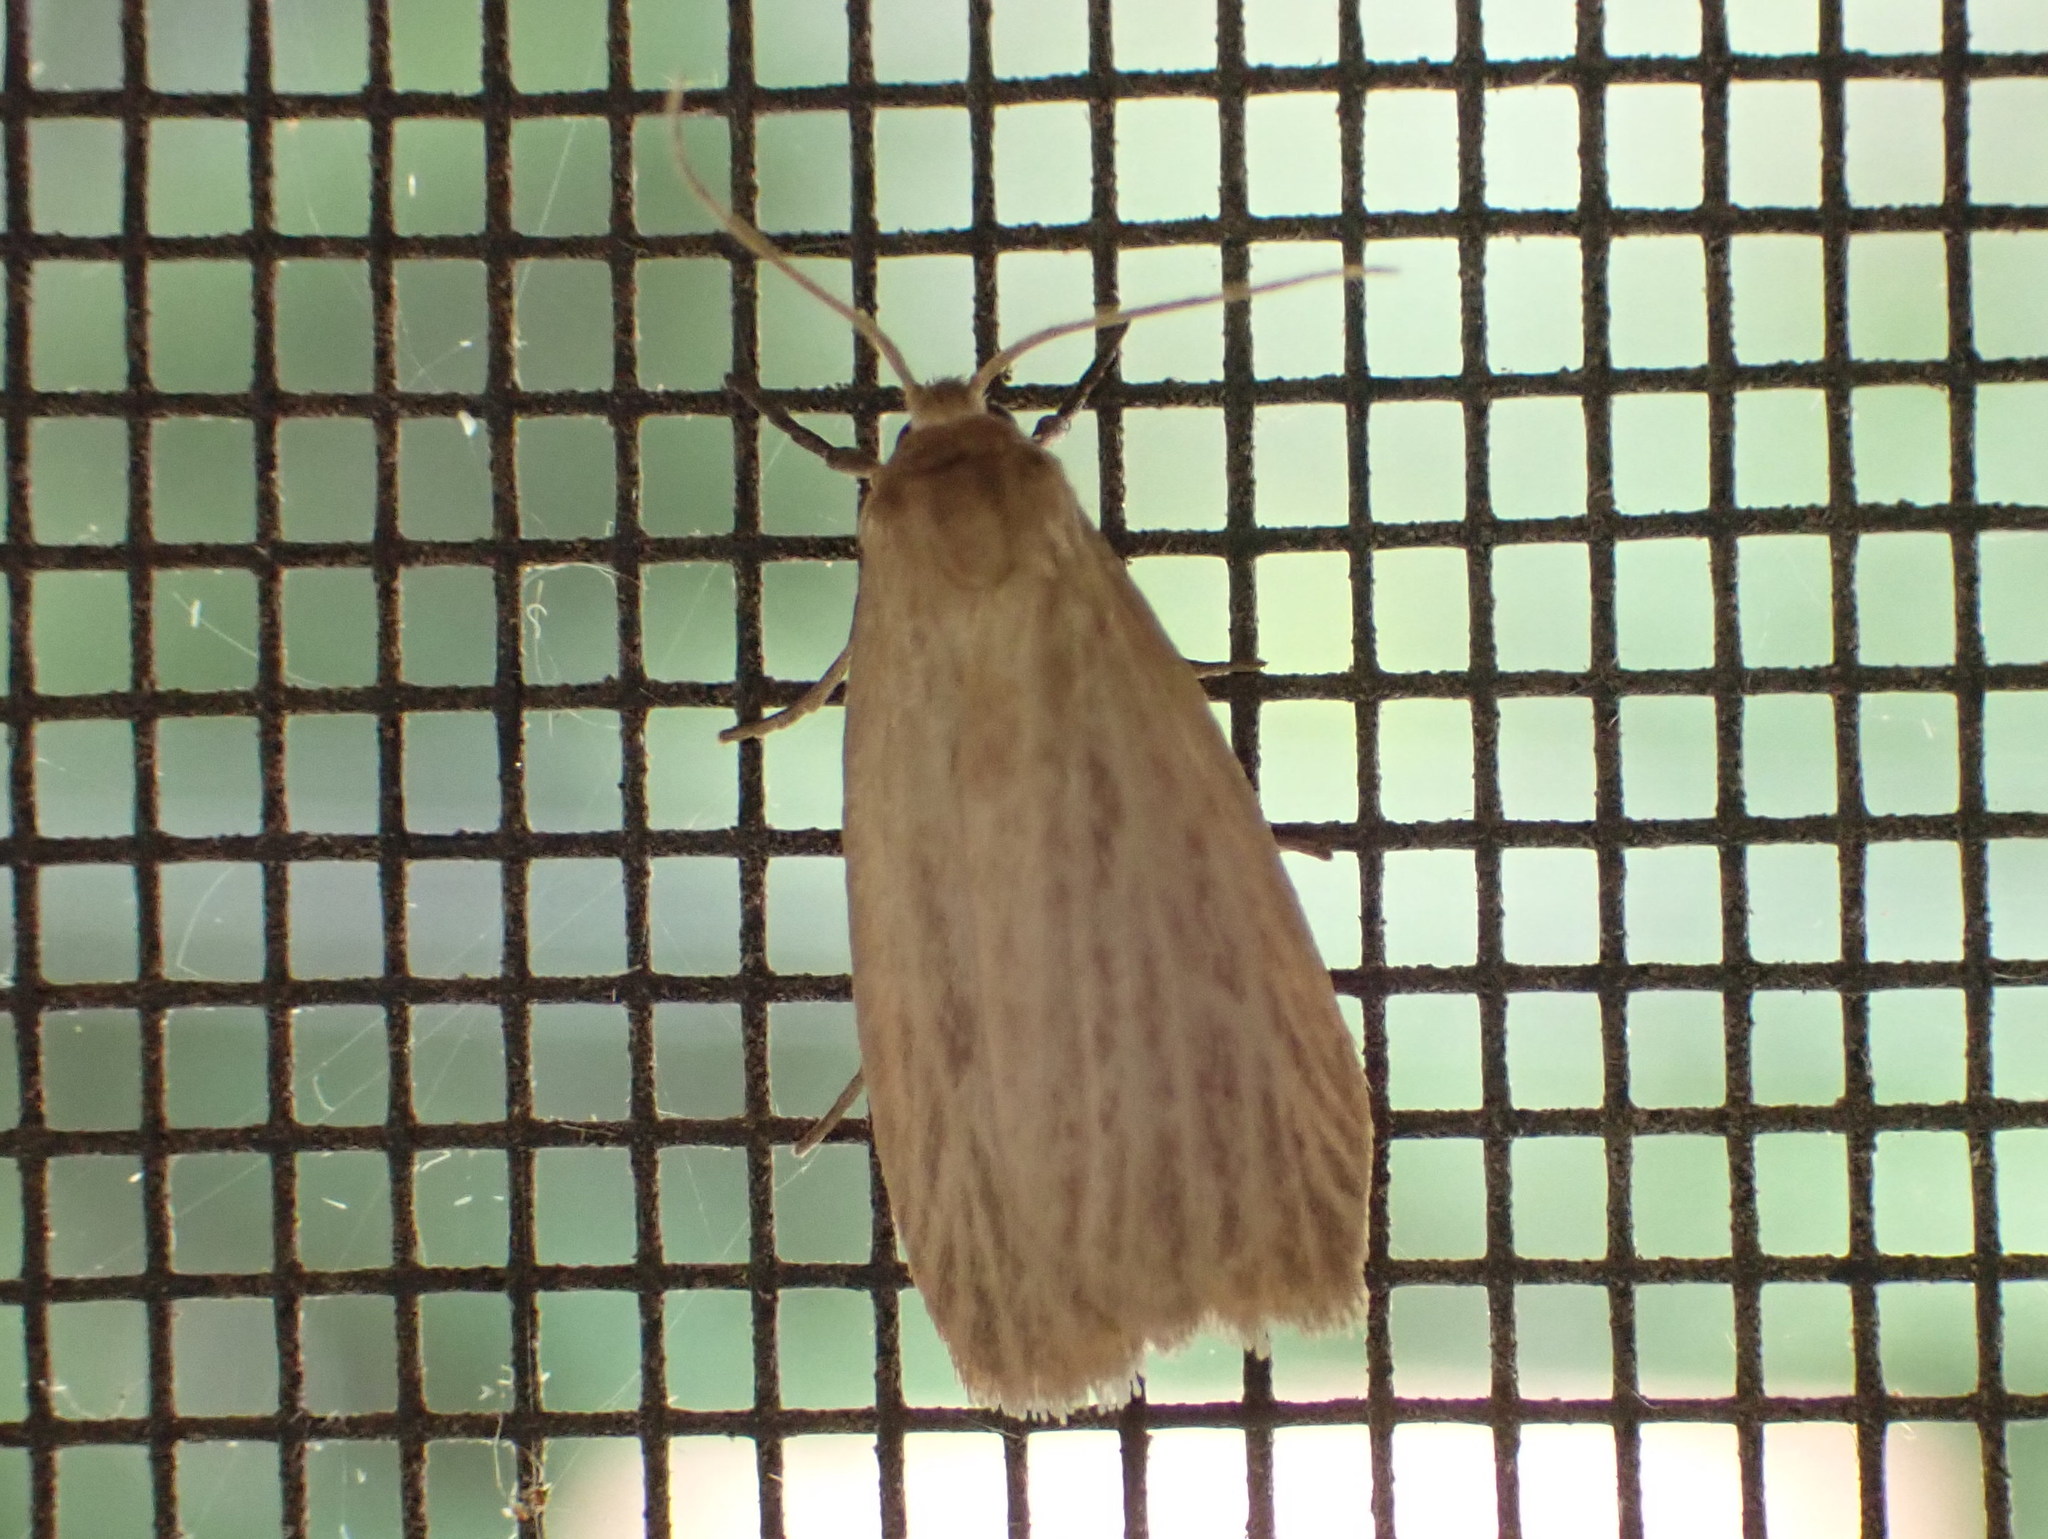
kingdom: Animalia
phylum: Arthropoda
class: Insecta
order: Lepidoptera
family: Erebidae
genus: Crambidia
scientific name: Crambidia pallida
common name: Pale lichen moth
